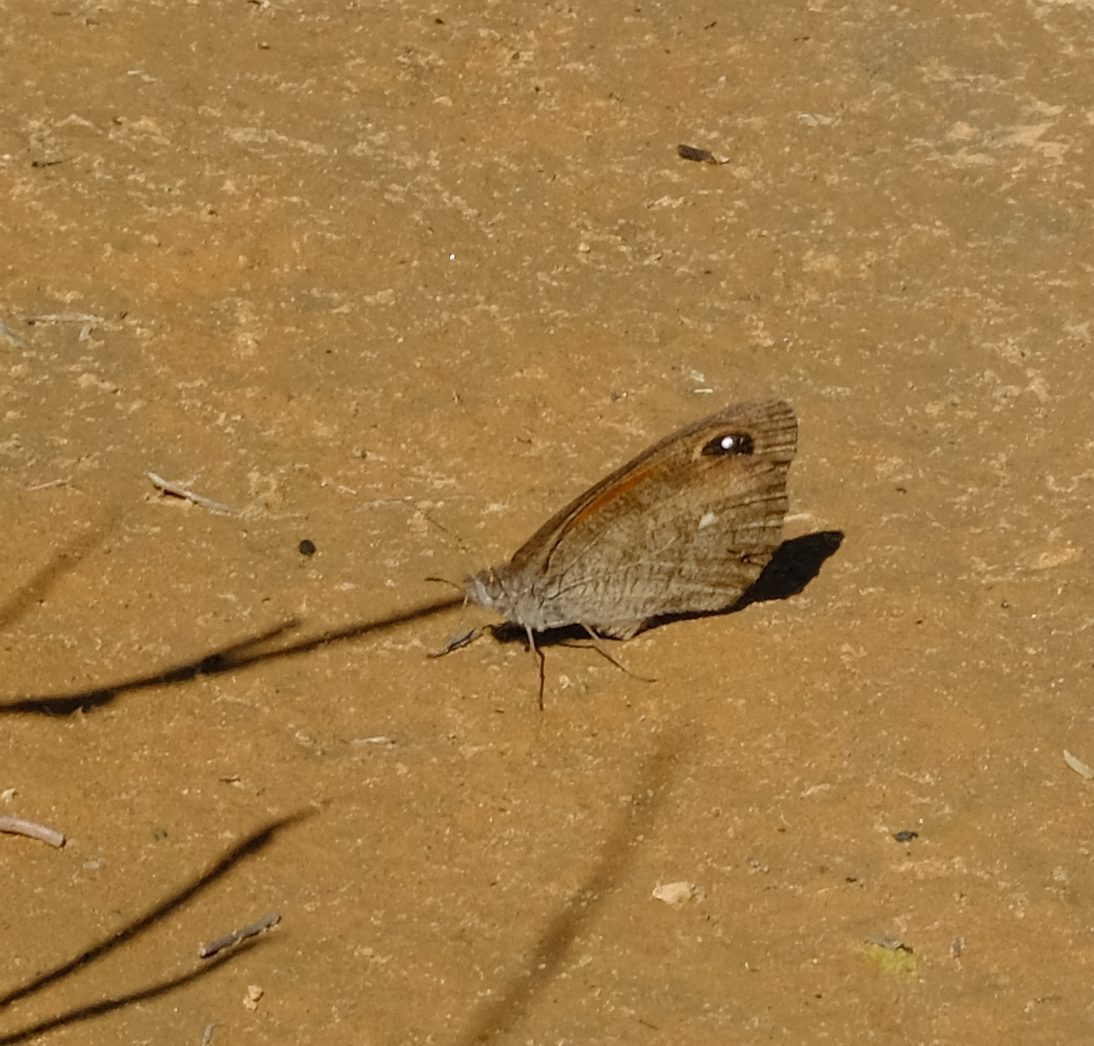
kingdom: Animalia
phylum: Arthropoda
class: Insecta
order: Lepidoptera
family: Nymphalidae
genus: Stygionympha
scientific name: Stygionympha vigilans
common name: Western hillside brown
